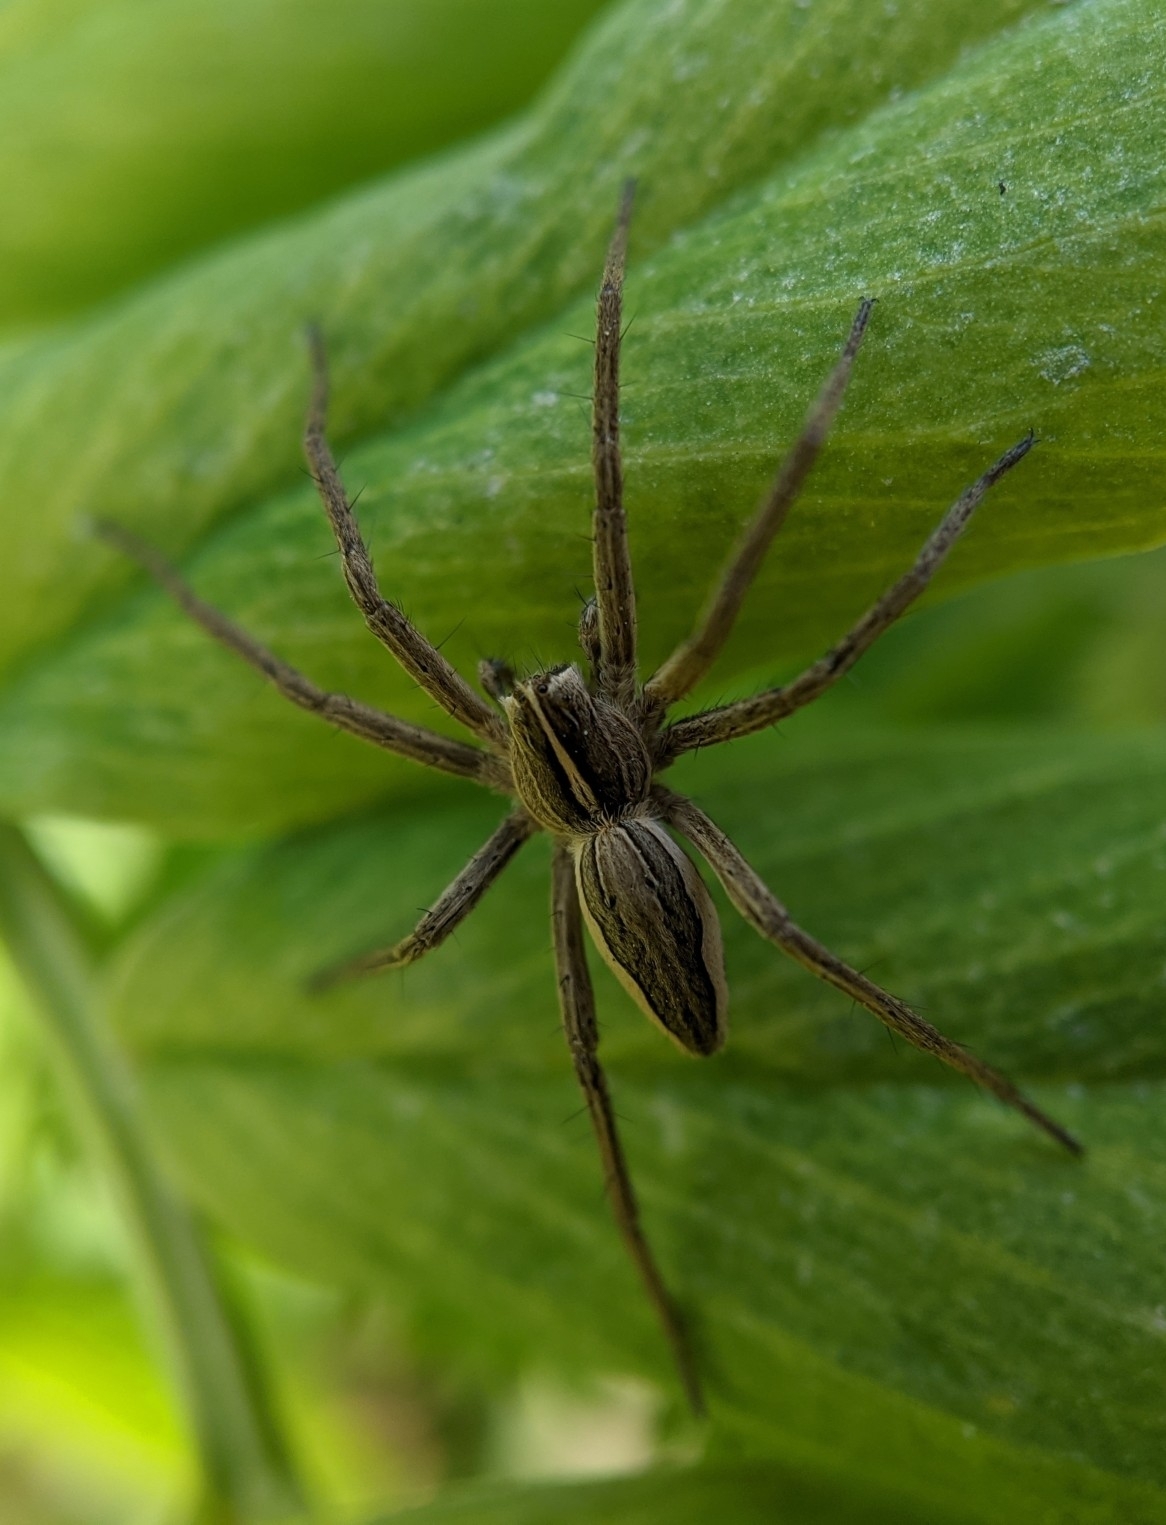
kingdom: Animalia
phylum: Arthropoda
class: Arachnida
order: Araneae
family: Pisauridae
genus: Pisaura
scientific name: Pisaura mirabilis
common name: Tent spider
